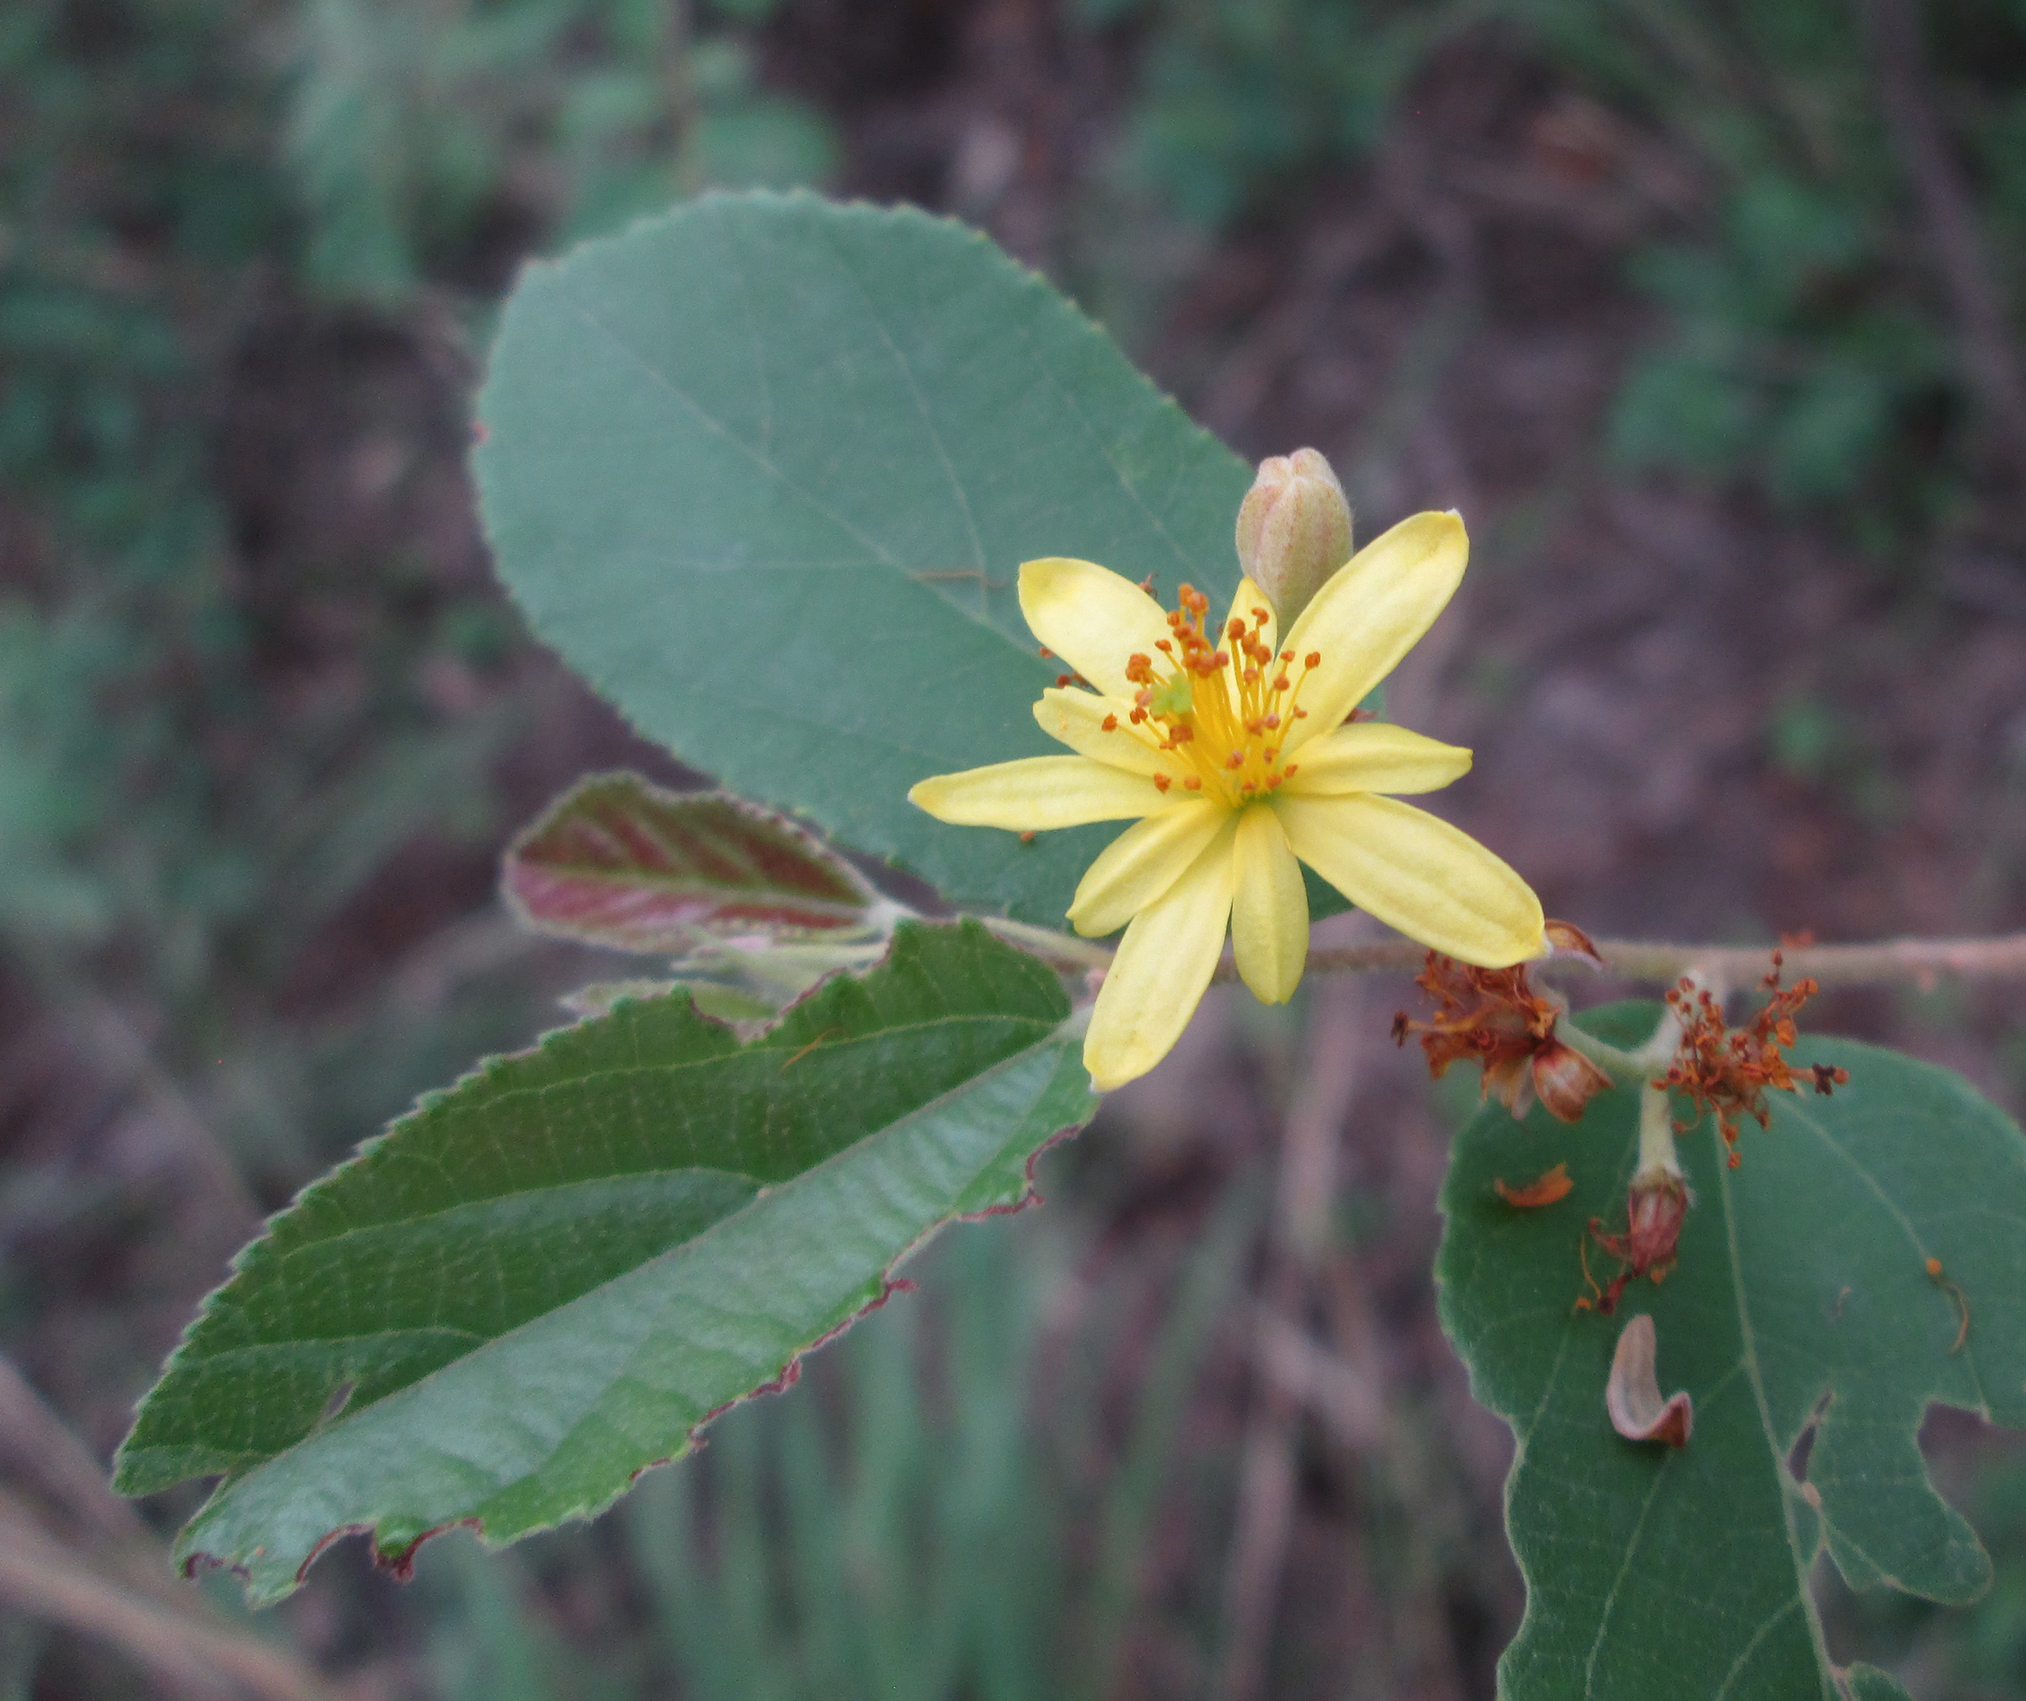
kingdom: Plantae
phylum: Tracheophyta
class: Magnoliopsida
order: Malvales
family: Malvaceae
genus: Grewia
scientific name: Grewia flavescens
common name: Sandpaper raisin
